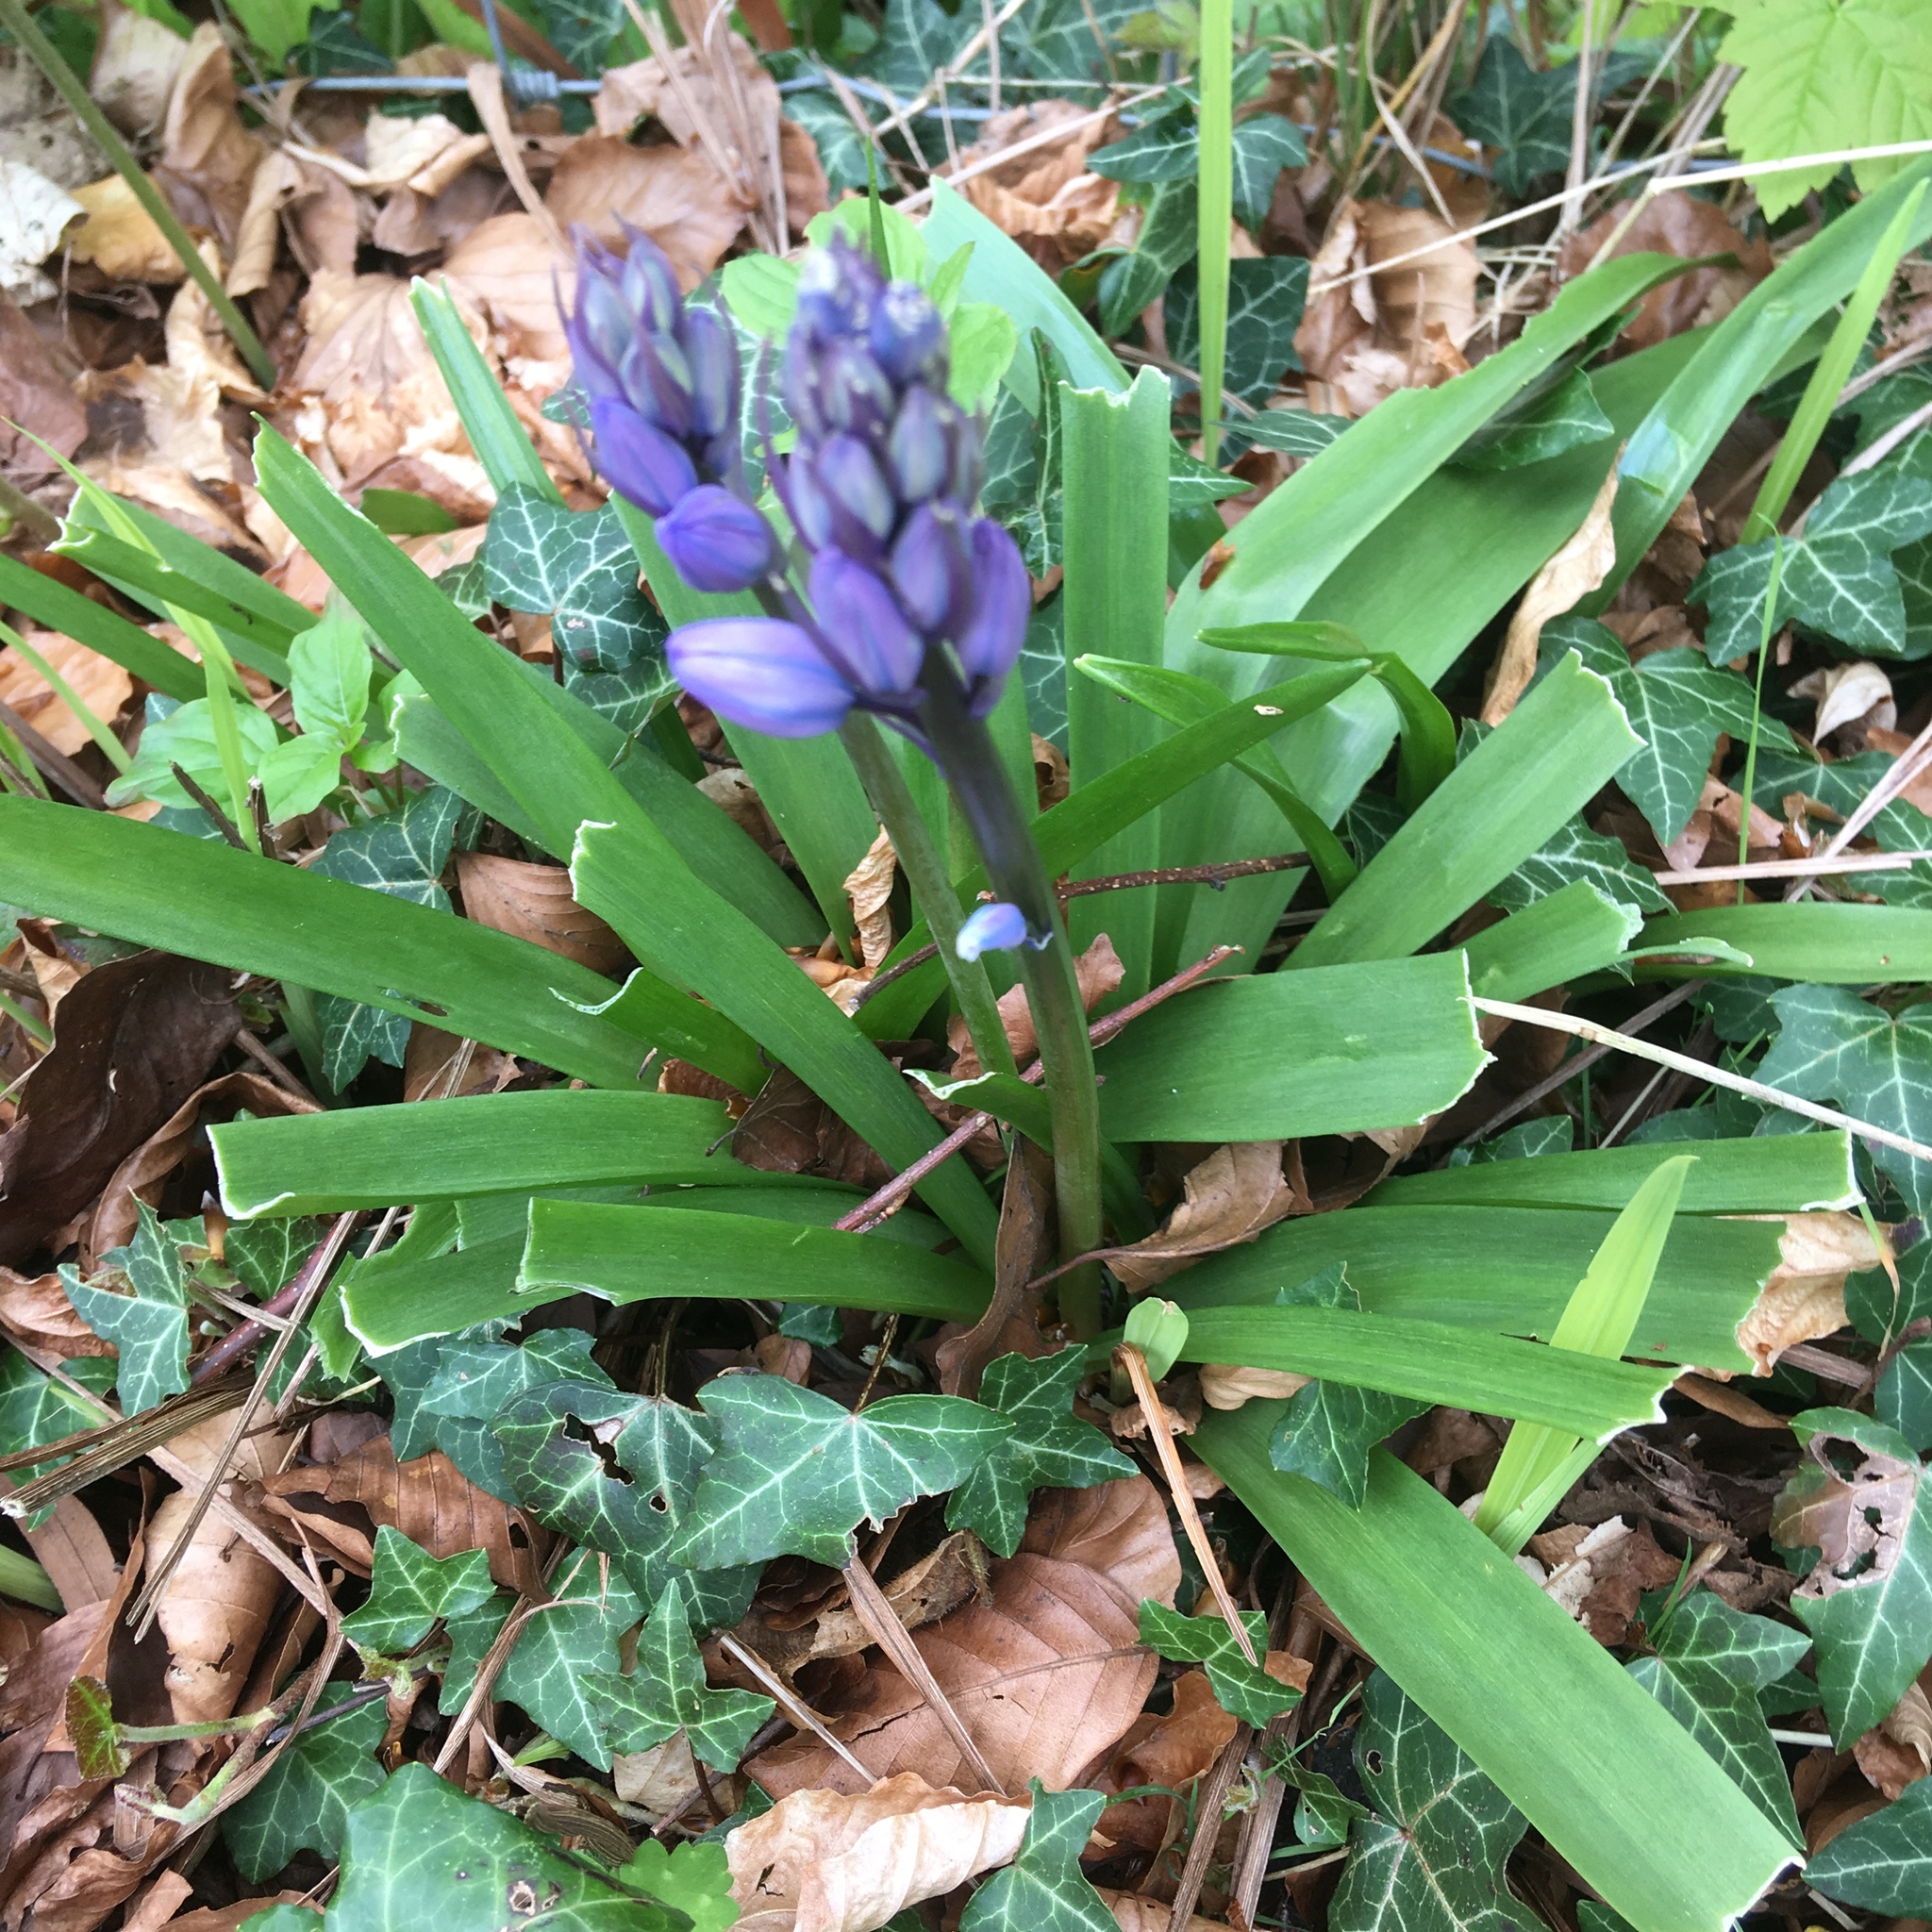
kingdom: Plantae
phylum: Tracheophyta
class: Liliopsida
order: Asparagales
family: Asparagaceae
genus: Hyacinthoides
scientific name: Hyacinthoides non-scripta
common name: Bluebell
